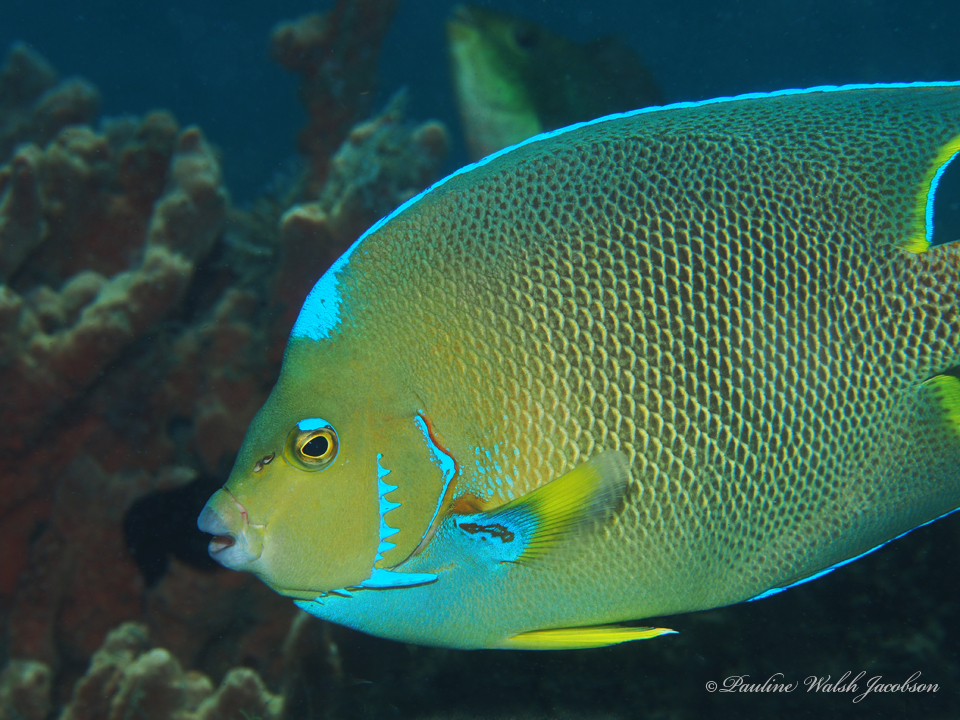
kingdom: Animalia
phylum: Chordata
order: Perciformes
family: Pomacanthidae
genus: Holacanthus
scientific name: Holacanthus ciliaris
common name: Queen angelfish
